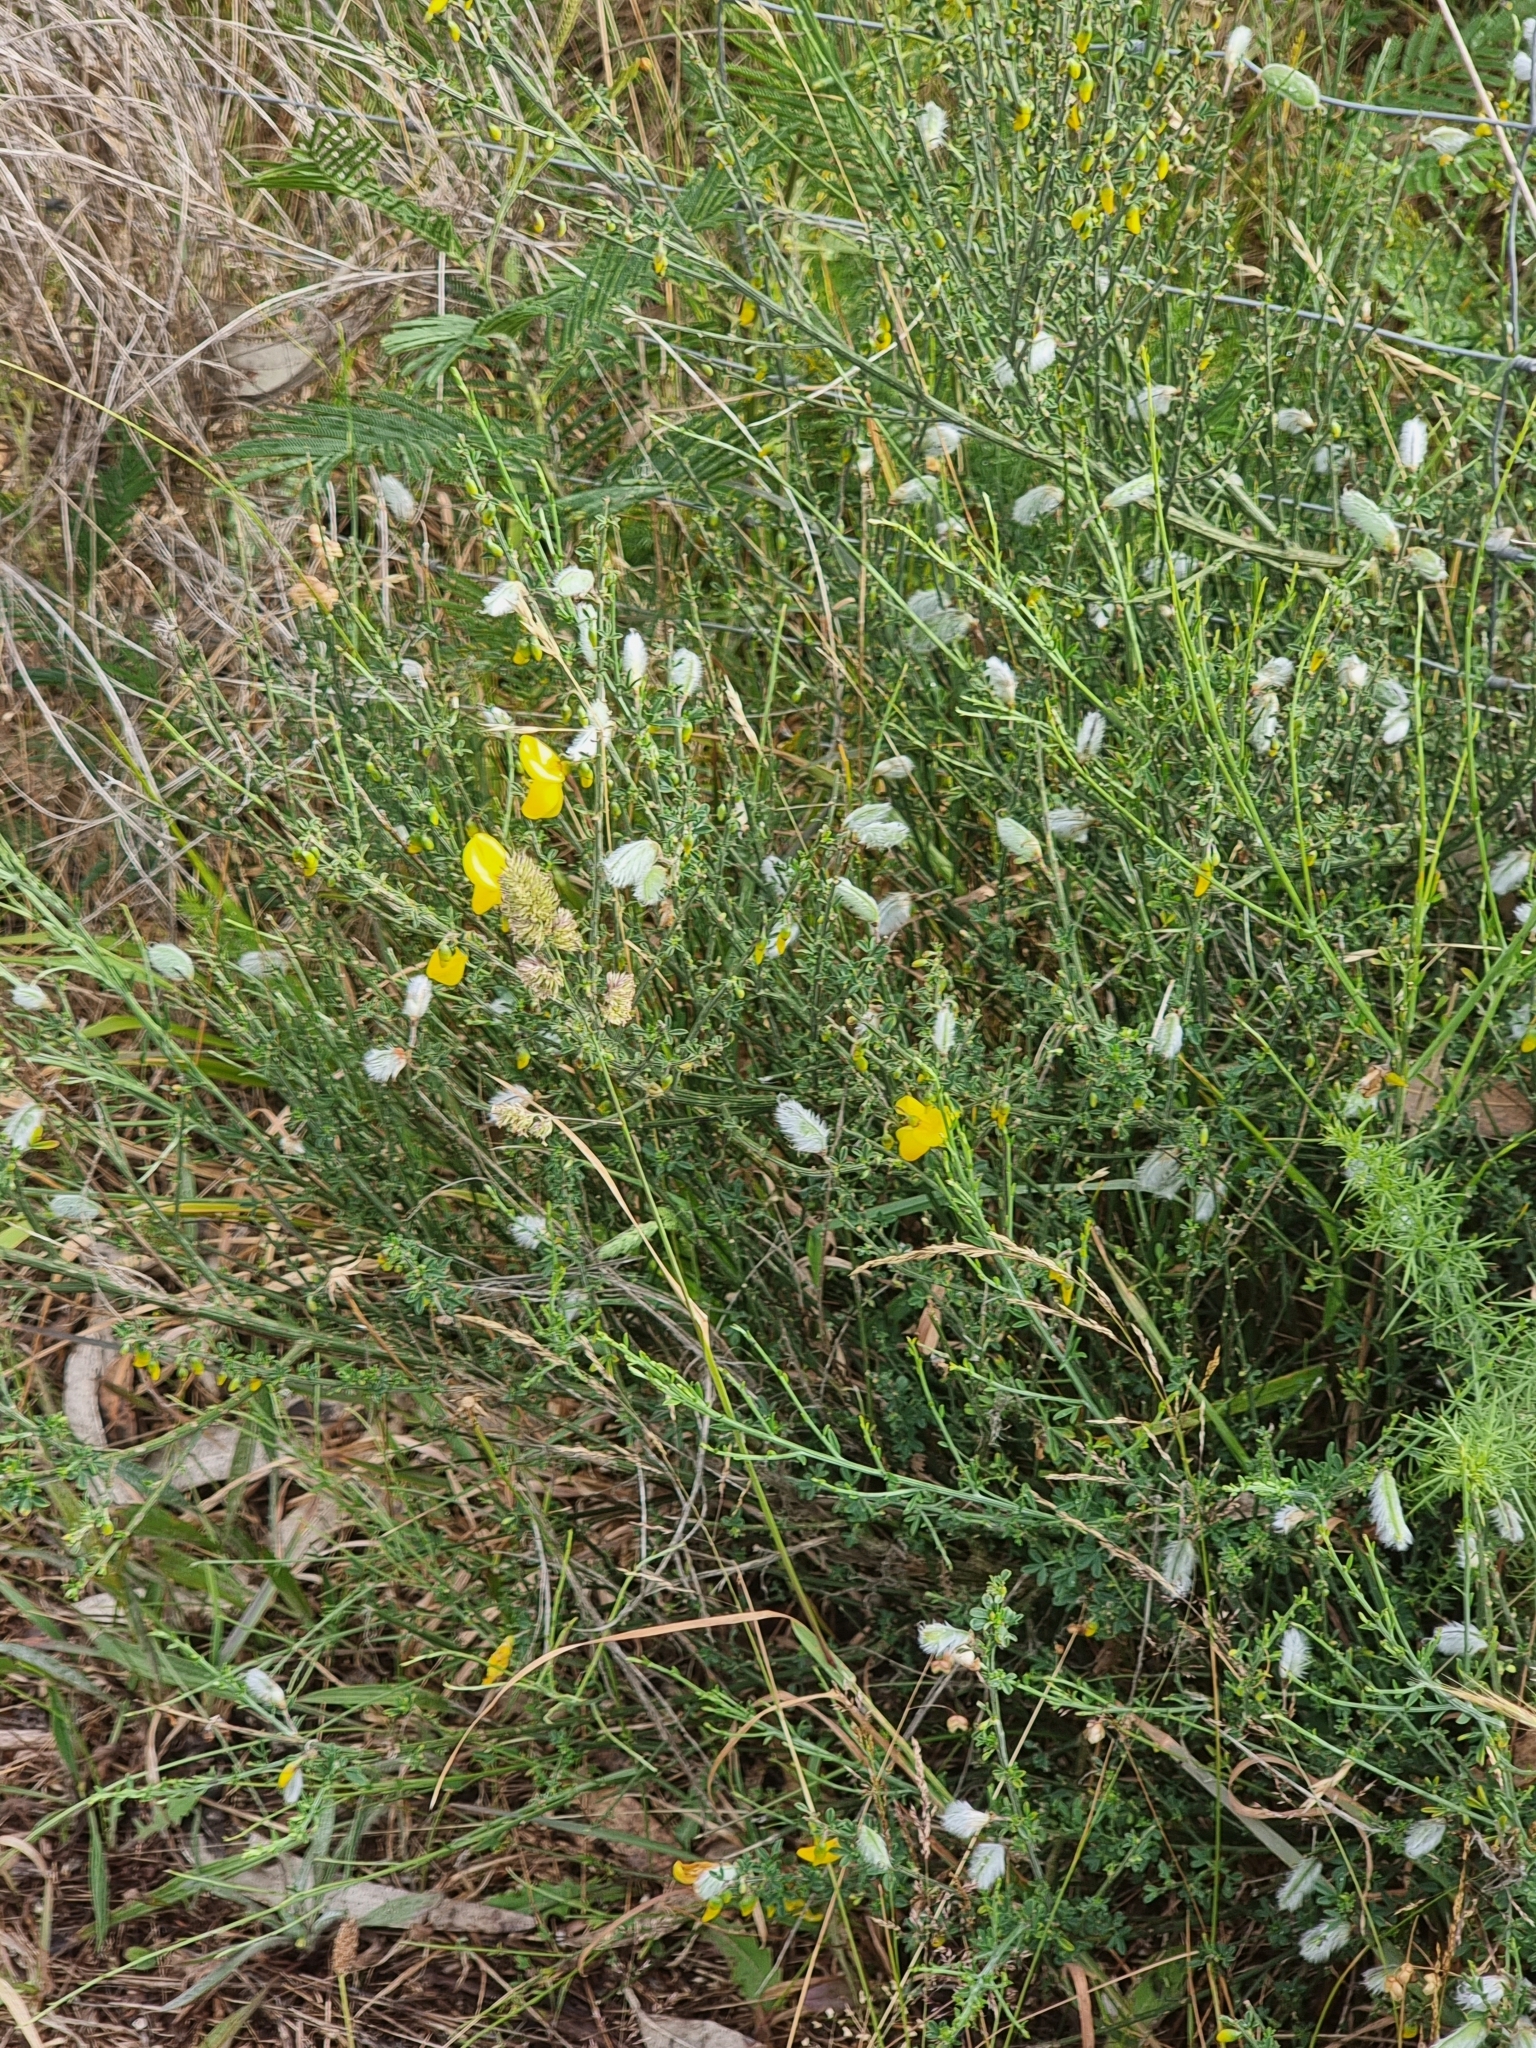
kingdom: Plantae
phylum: Tracheophyta
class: Magnoliopsida
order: Fabales
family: Fabaceae
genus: Cytisus
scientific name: Cytisus striatus
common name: Hairy-fruited broom
